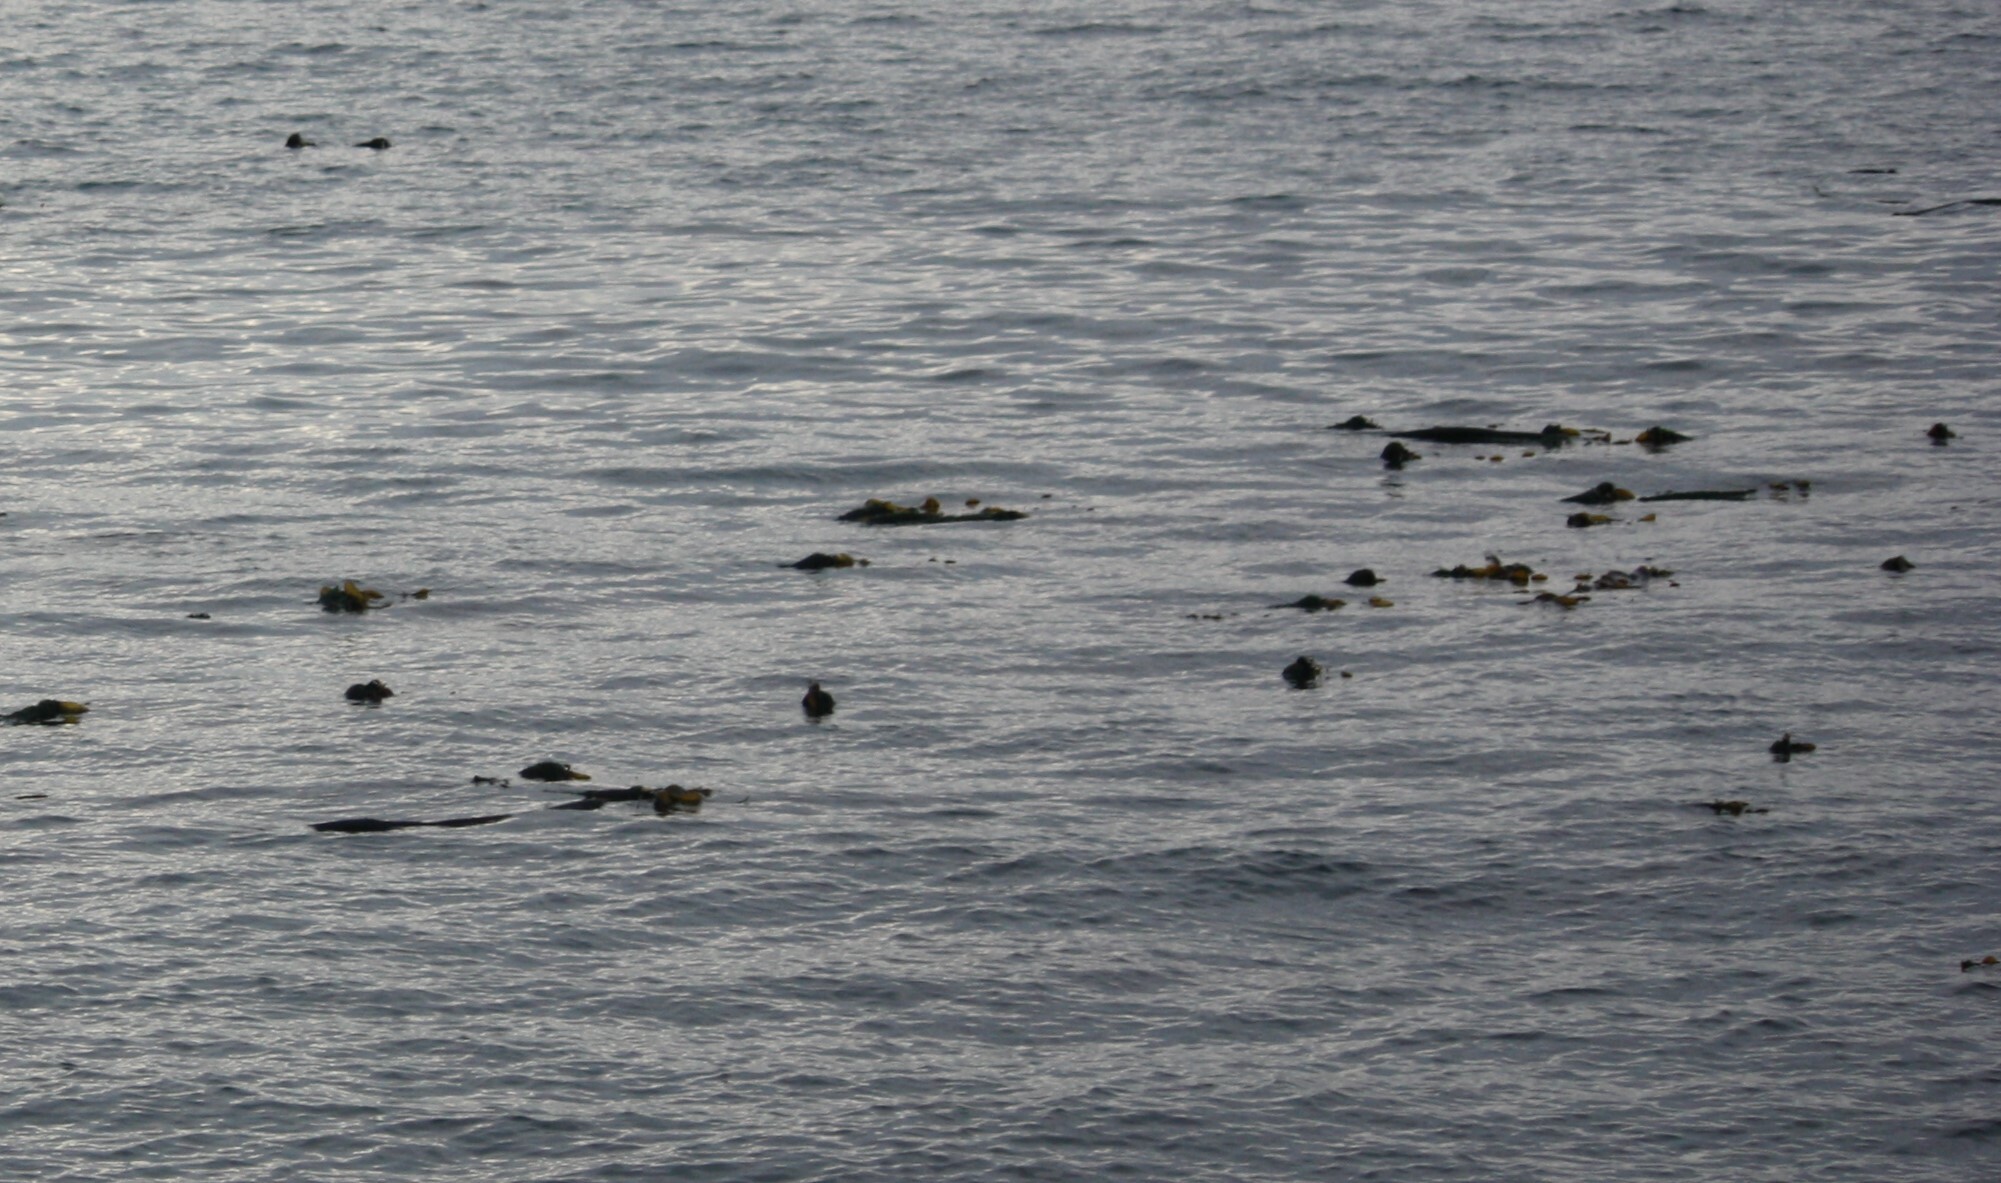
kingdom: Chromista
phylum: Ochrophyta
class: Phaeophyceae
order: Laminariales
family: Laminariaceae
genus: Nereocystis
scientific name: Nereocystis luetkeana
